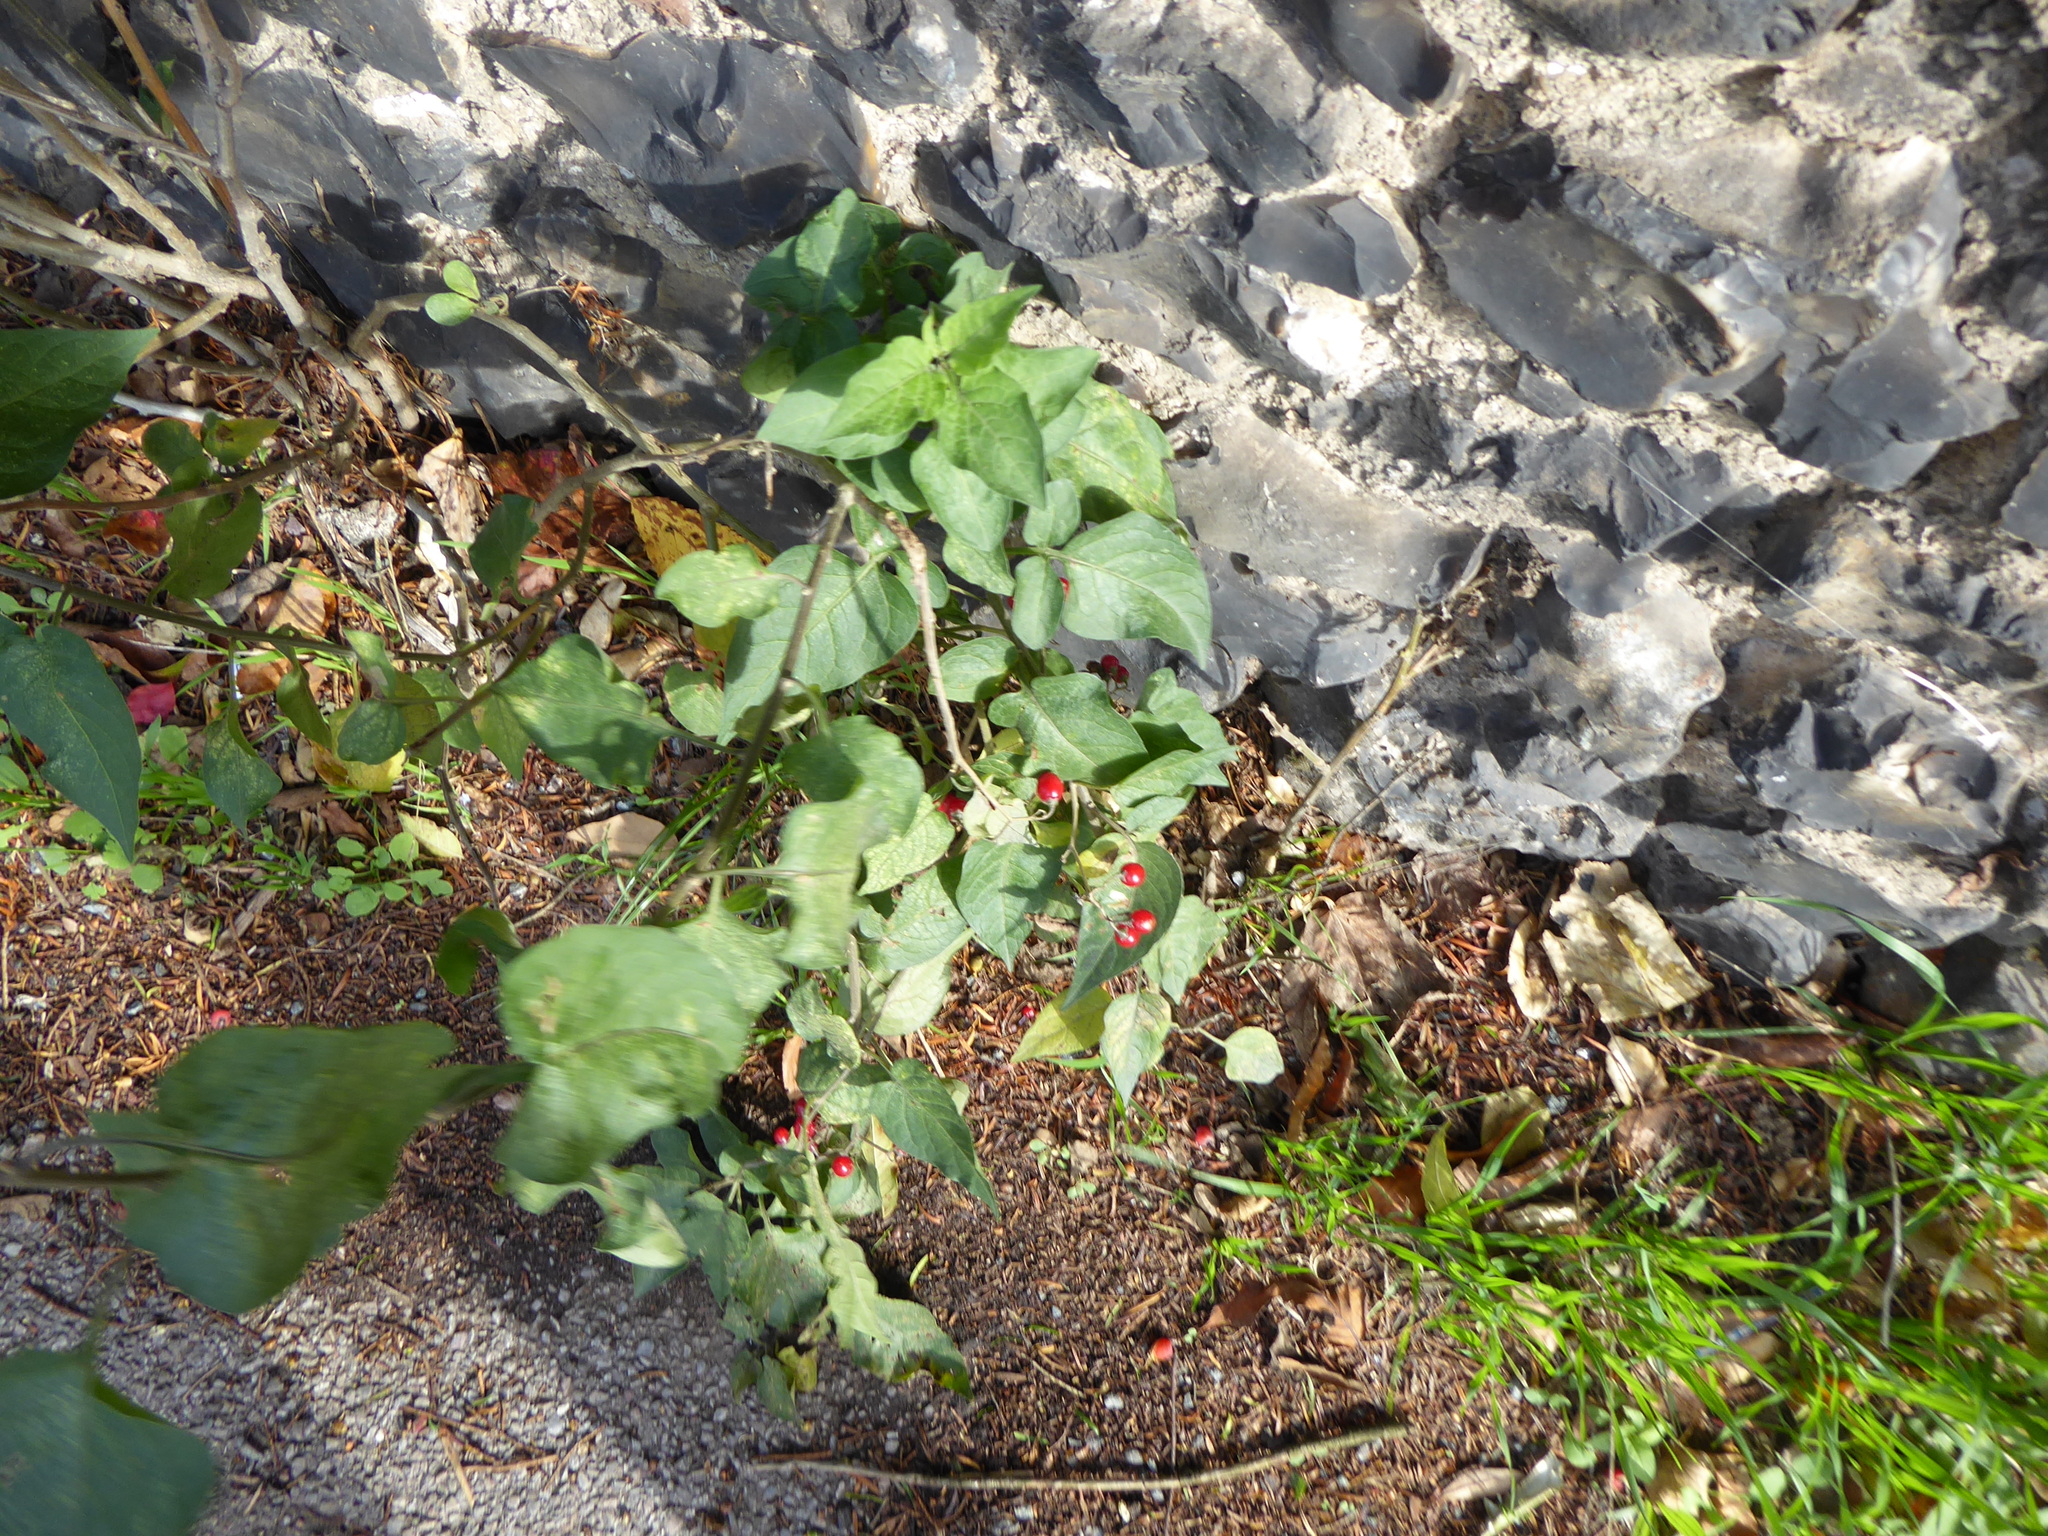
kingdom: Plantae
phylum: Tracheophyta
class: Magnoliopsida
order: Solanales
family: Solanaceae
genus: Solanum
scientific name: Solanum dulcamara
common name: Climbing nightshade
